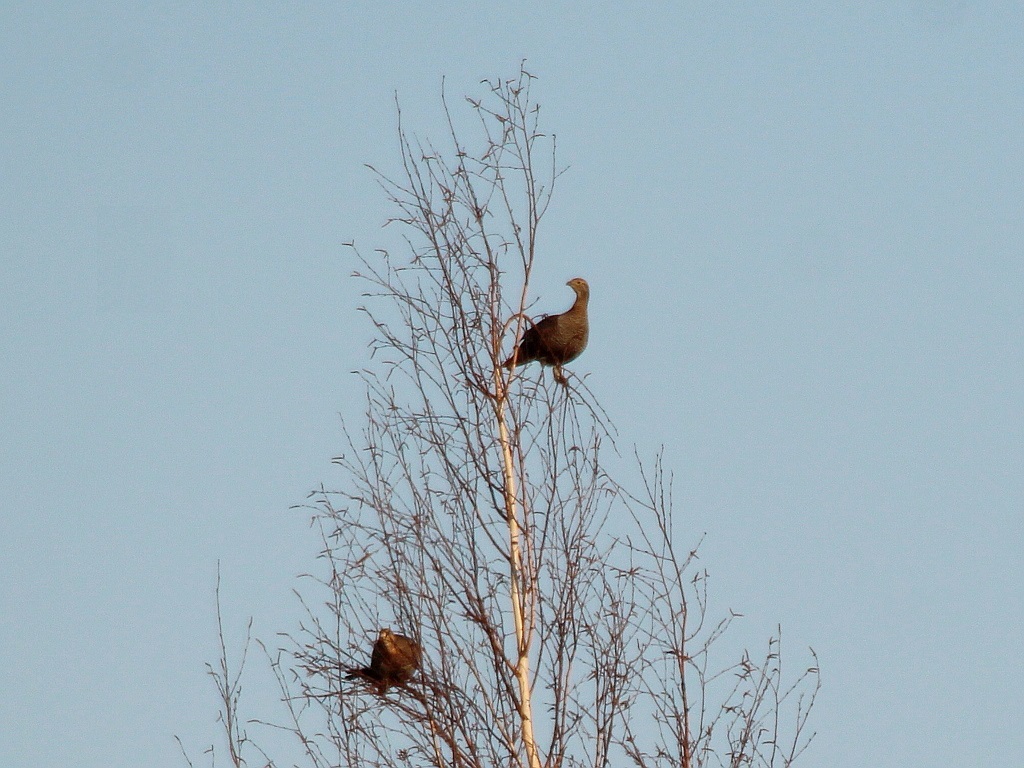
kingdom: Animalia
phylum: Chordata
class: Aves
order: Galliformes
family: Phasianidae
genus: Lyrurus
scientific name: Lyrurus tetrix
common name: Black grouse
